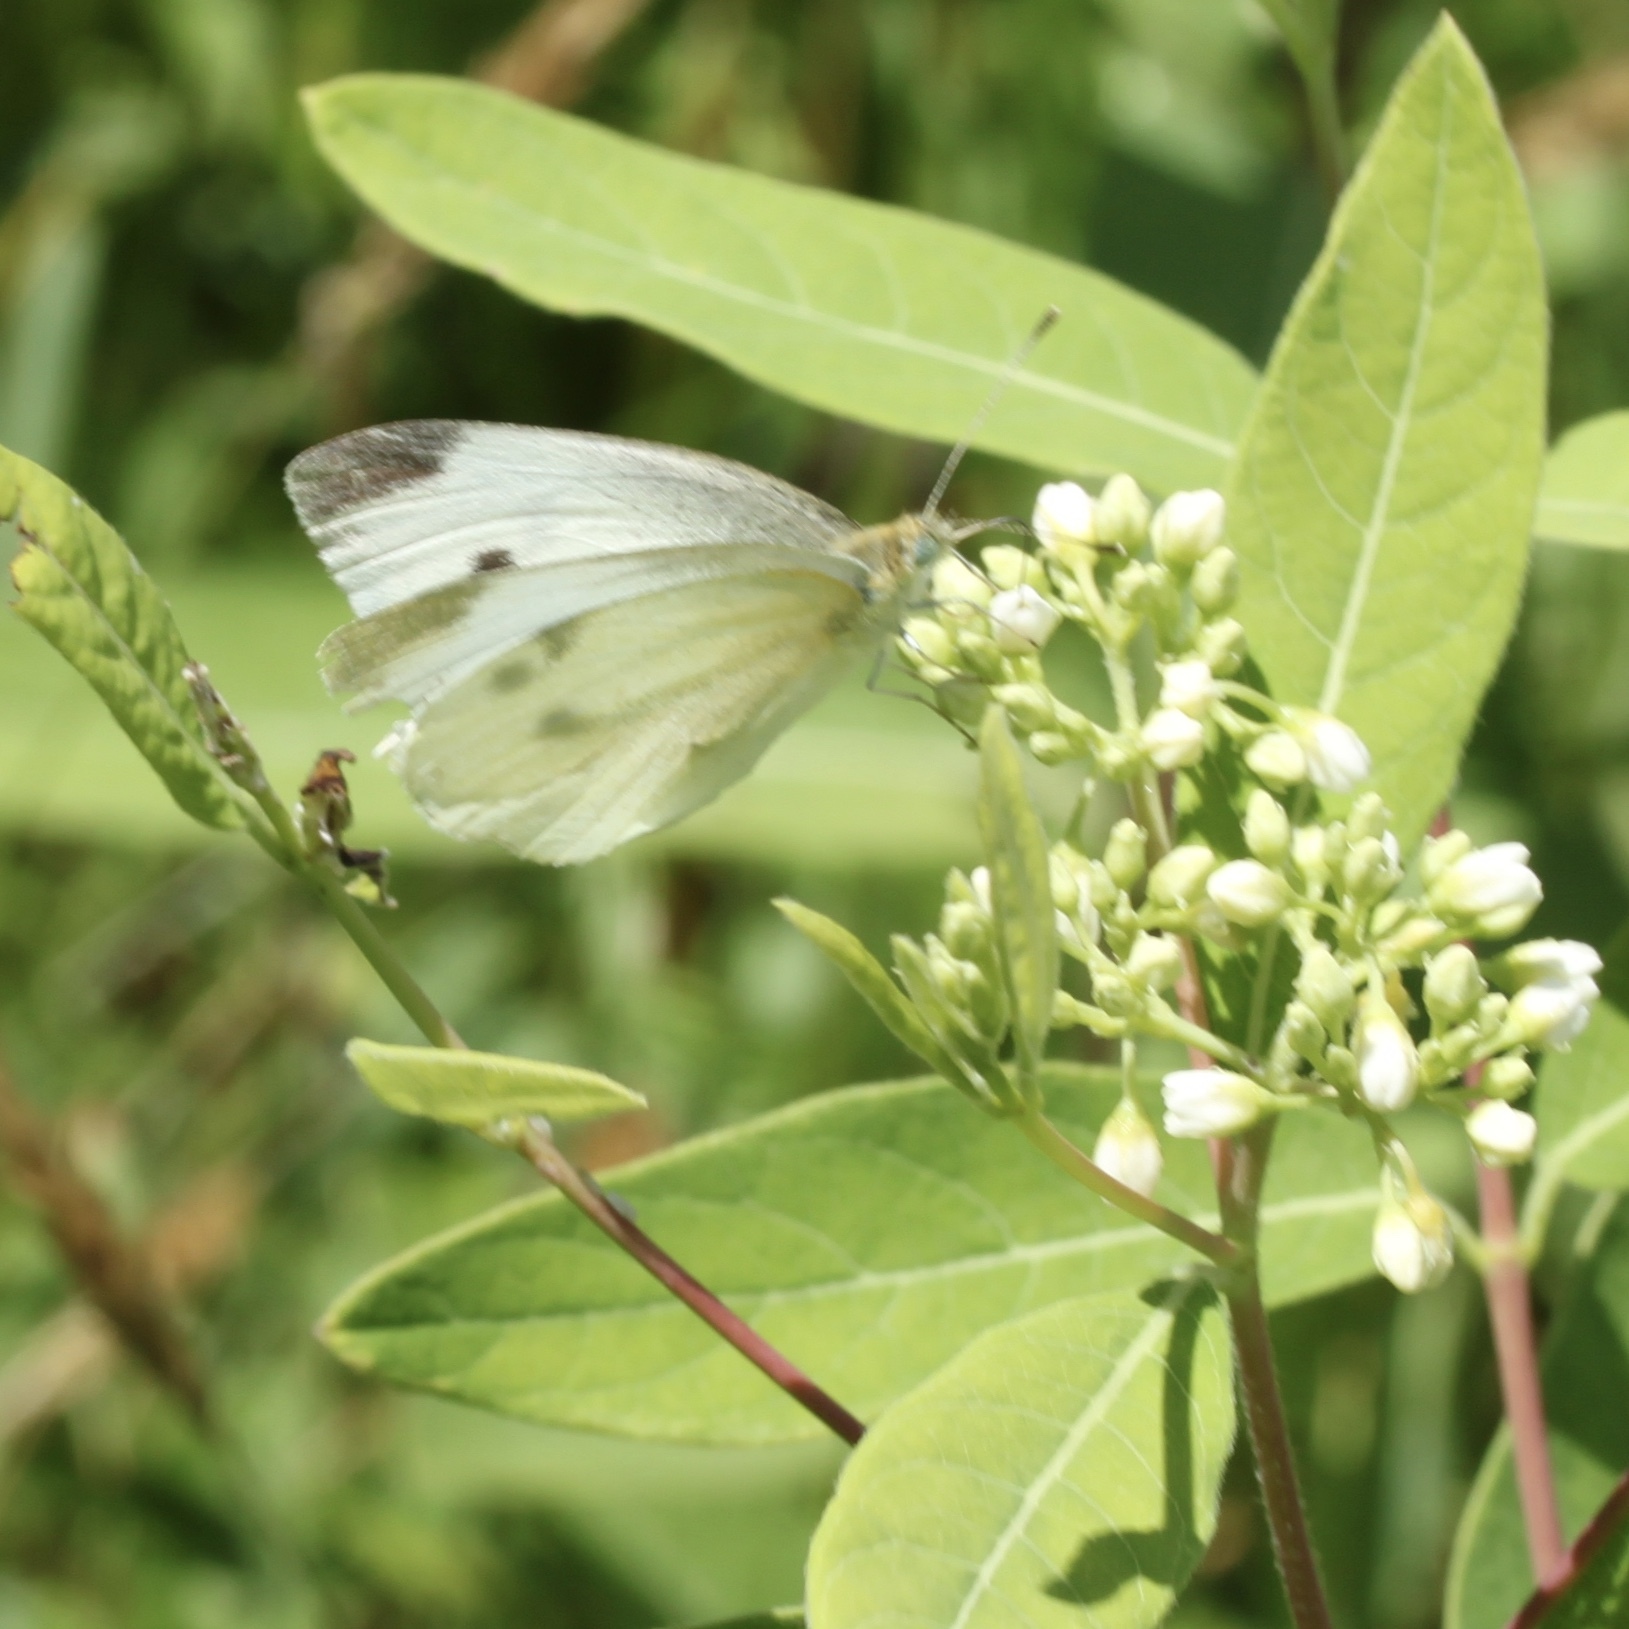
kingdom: Animalia
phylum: Arthropoda
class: Insecta
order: Lepidoptera
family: Pieridae
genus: Pieris
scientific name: Pieris rapae
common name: Small white
